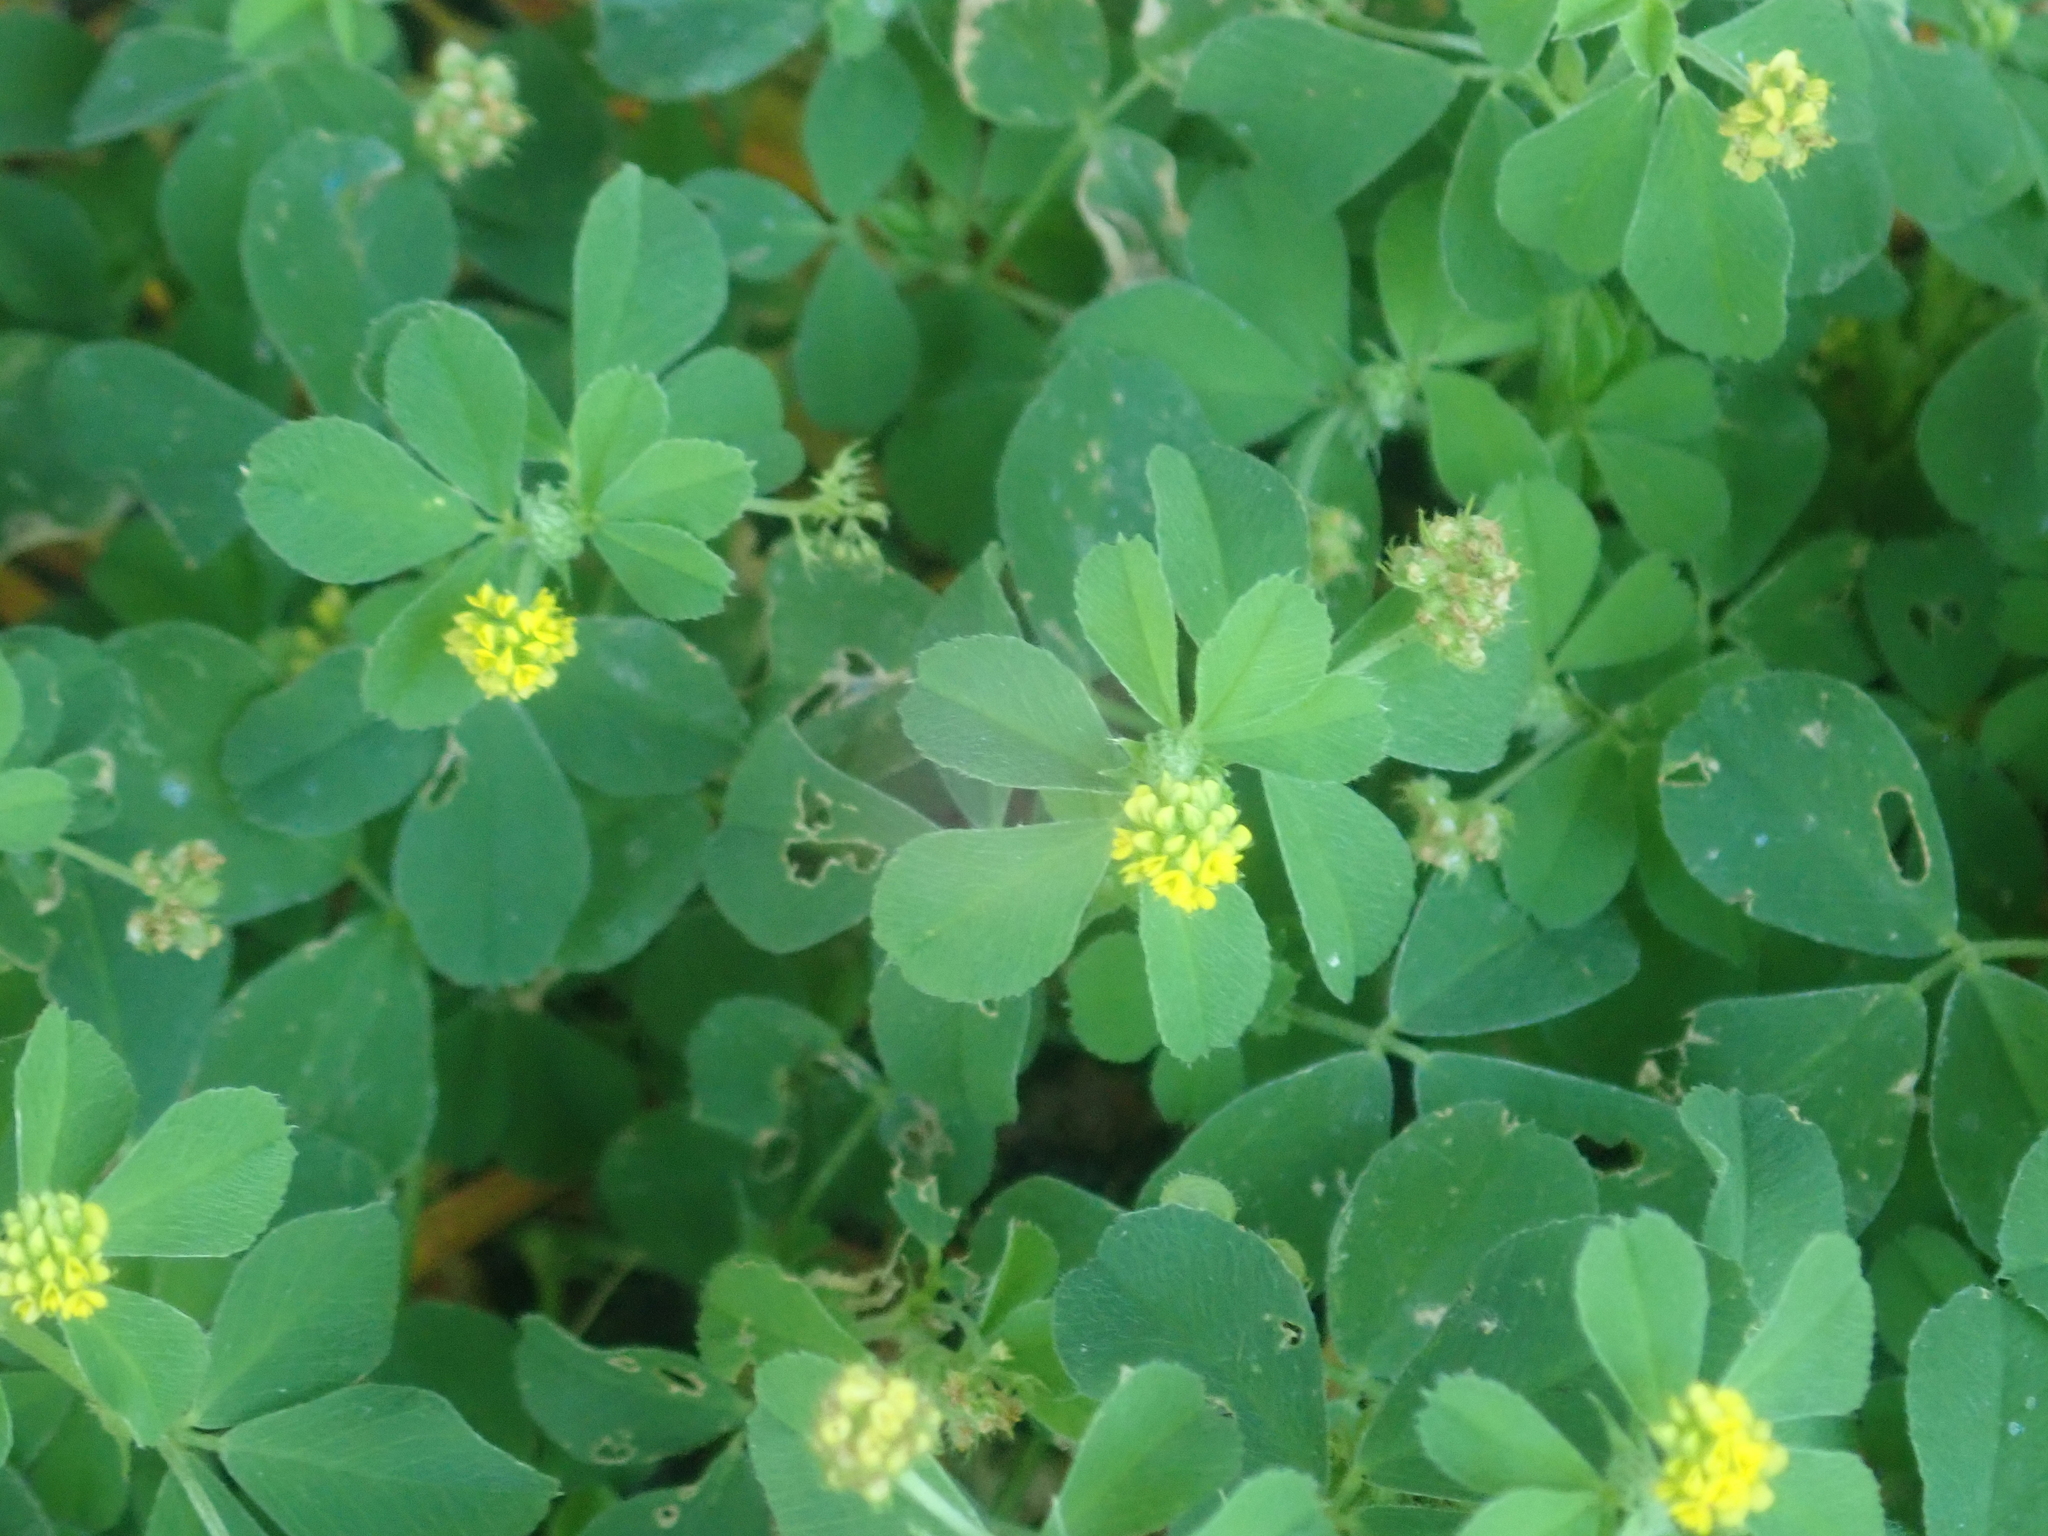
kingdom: Plantae
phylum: Tracheophyta
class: Magnoliopsida
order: Fabales
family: Fabaceae
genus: Medicago
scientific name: Medicago lupulina
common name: Black medick
